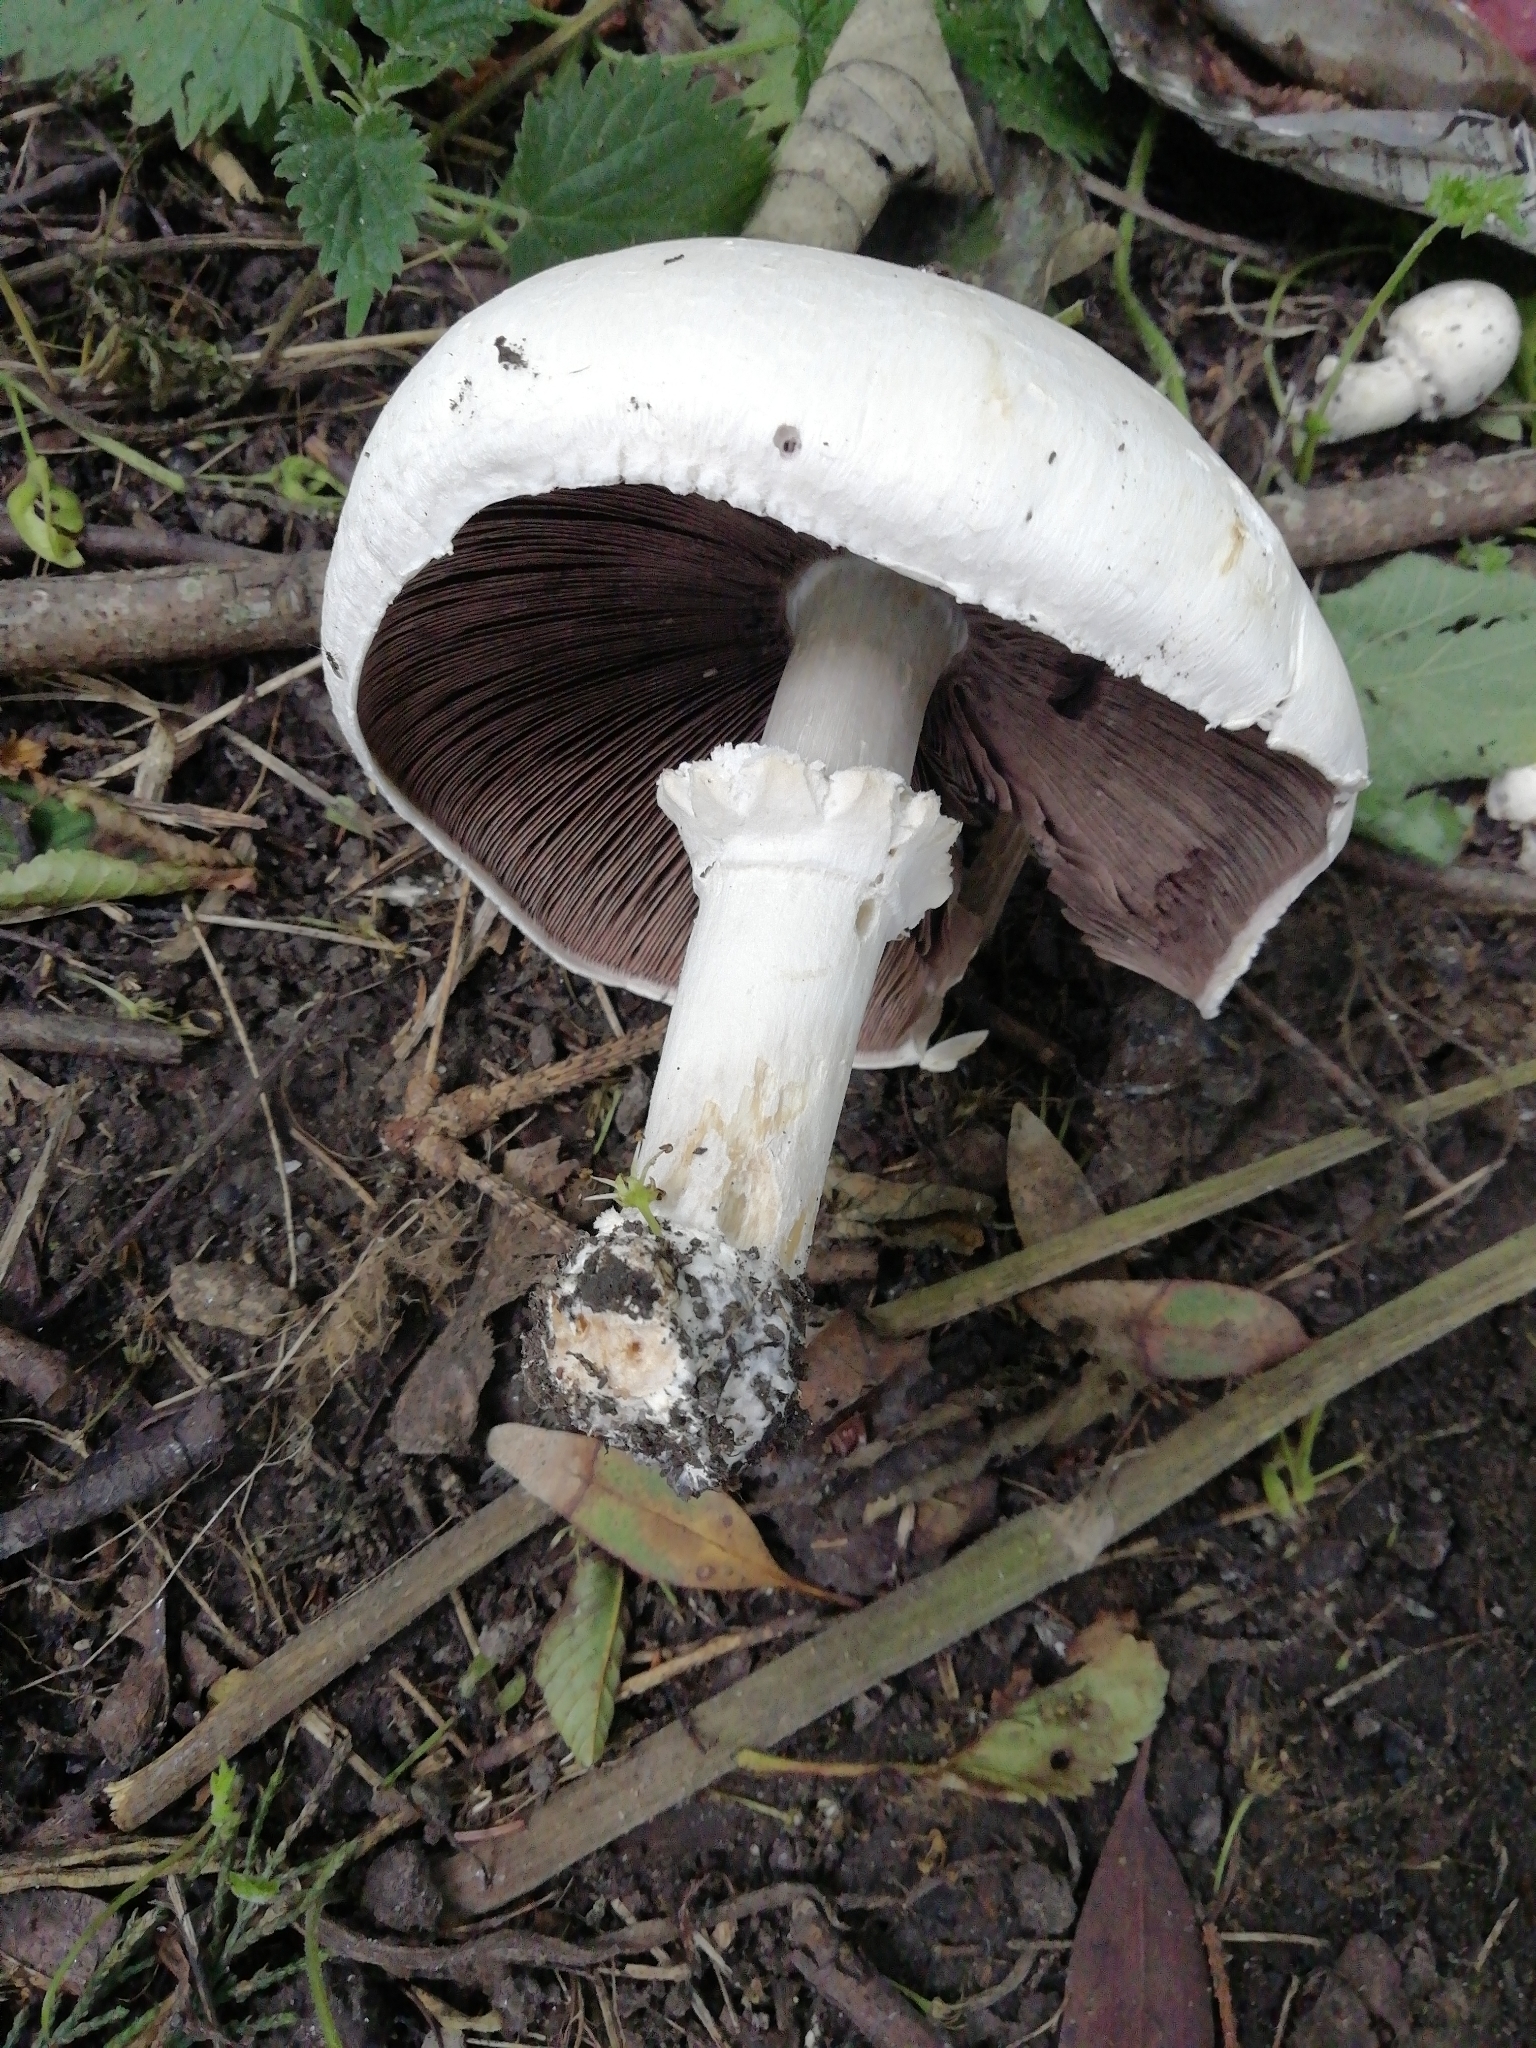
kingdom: Fungi
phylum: Basidiomycota
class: Agaricomycetes
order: Agaricales
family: Agaricaceae
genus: Agaricus
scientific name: Agaricus campestris
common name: Field mushroom
